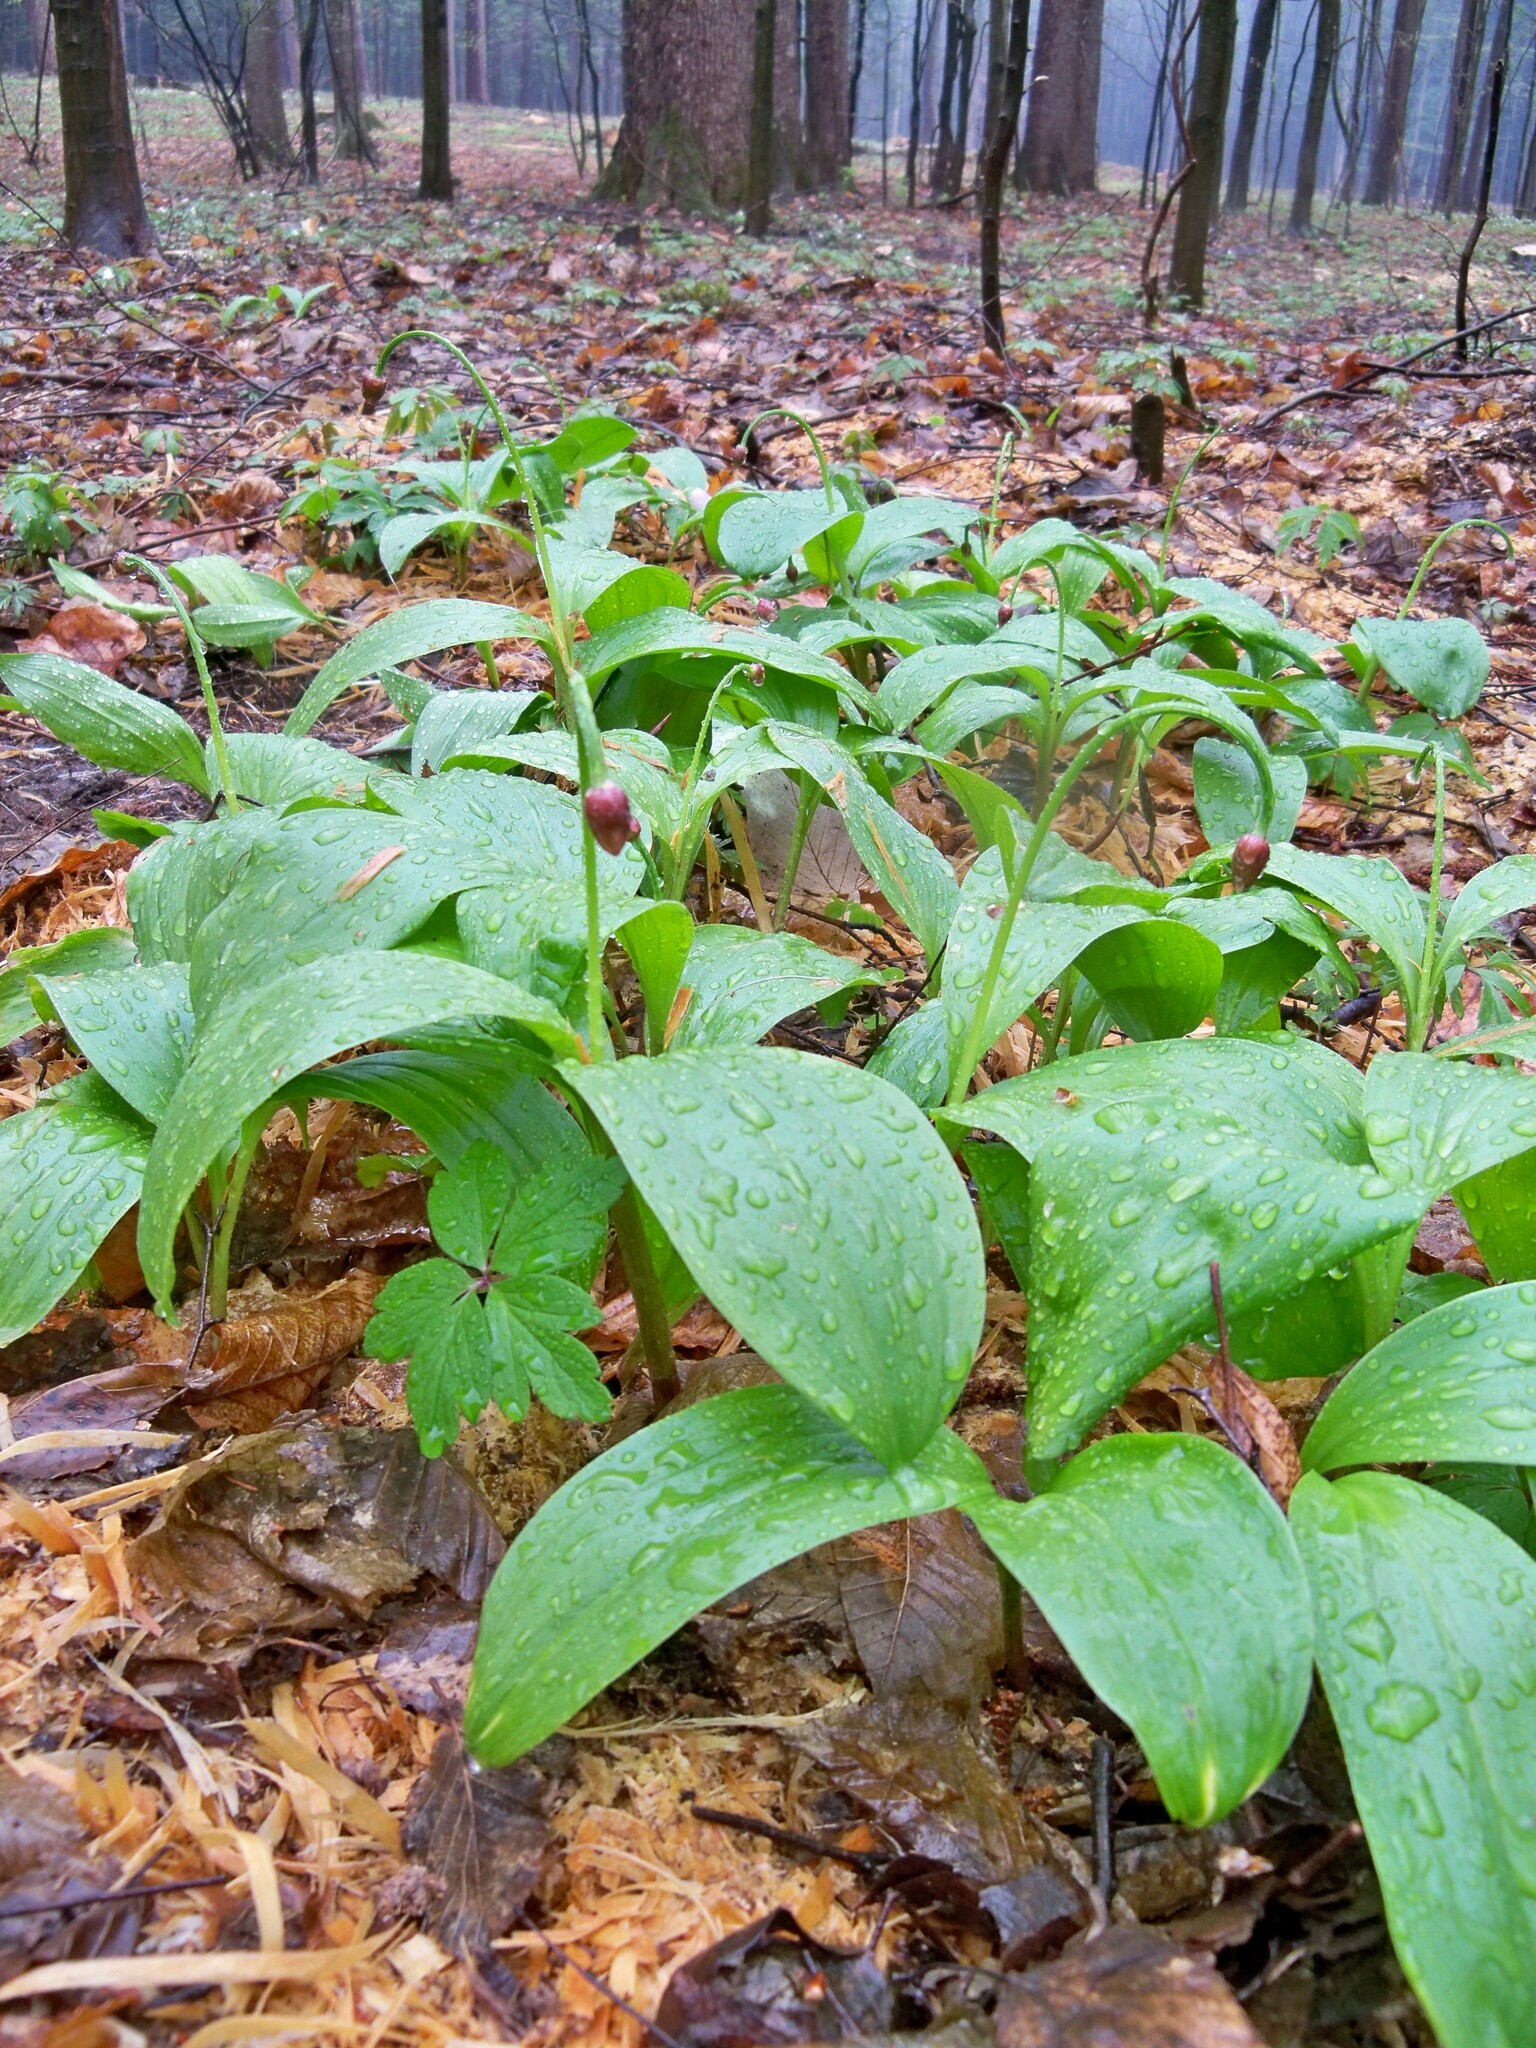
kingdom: Plantae
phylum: Tracheophyta
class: Liliopsida
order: Asparagales
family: Asparagaceae
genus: Convallaria
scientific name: Convallaria majalis
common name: Lily-of-the-valley
